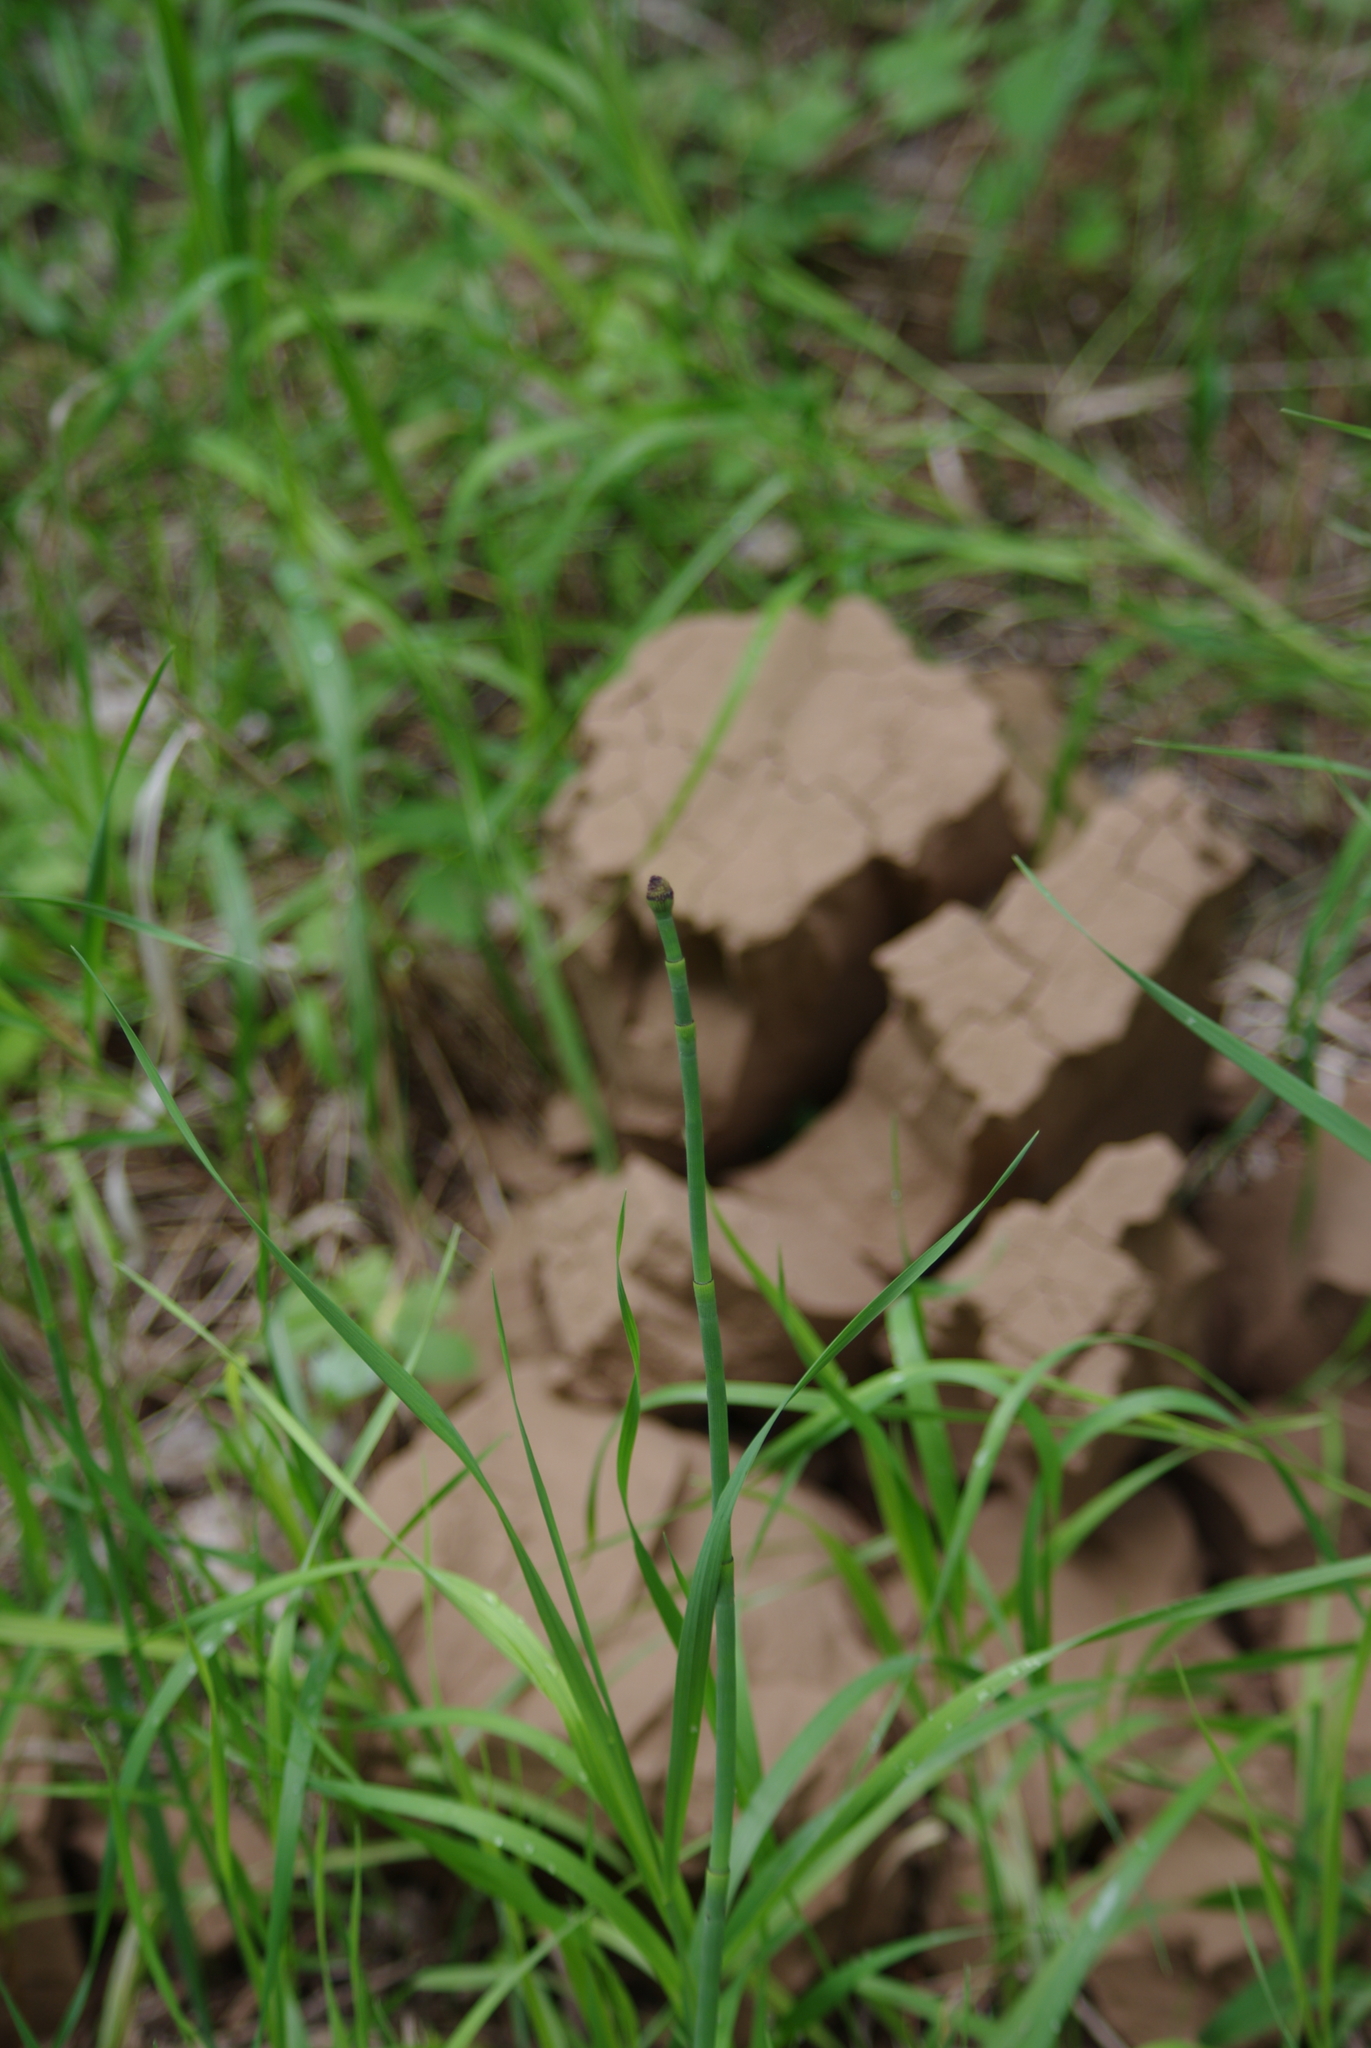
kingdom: Plantae
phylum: Tracheophyta
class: Polypodiopsida
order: Equisetales
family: Equisetaceae
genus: Equisetum
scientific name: Equisetum laevigatum
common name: Smooth scouring-rush
